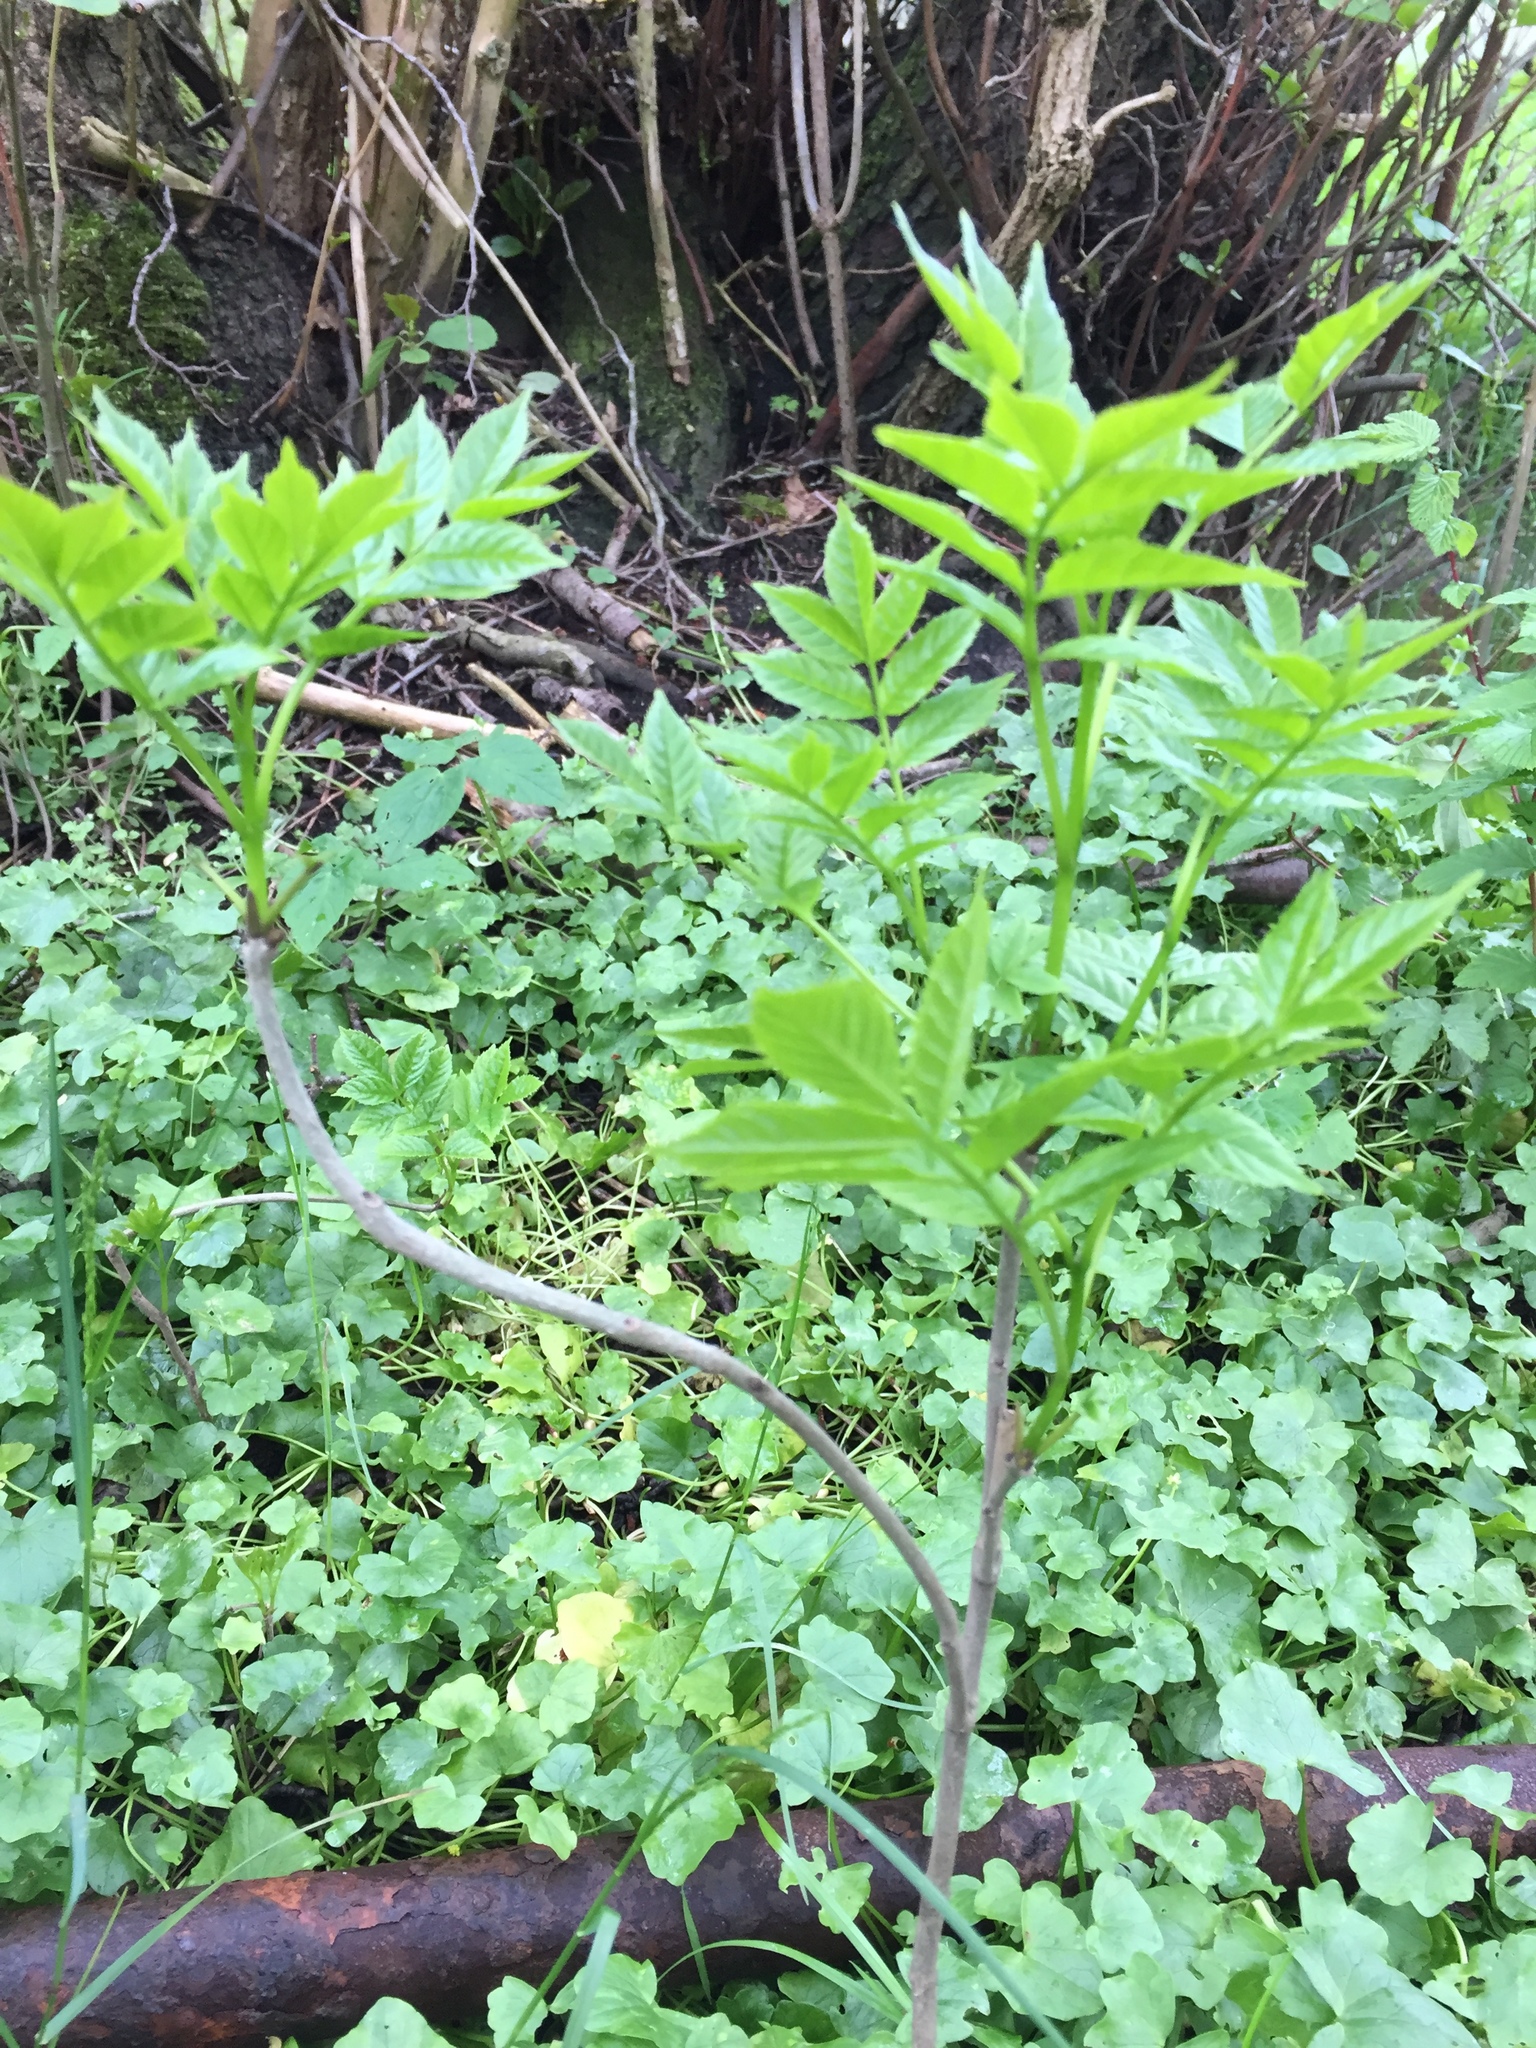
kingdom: Plantae
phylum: Tracheophyta
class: Magnoliopsida
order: Lamiales
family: Oleaceae
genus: Fraxinus
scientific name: Fraxinus excelsior
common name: European ash
